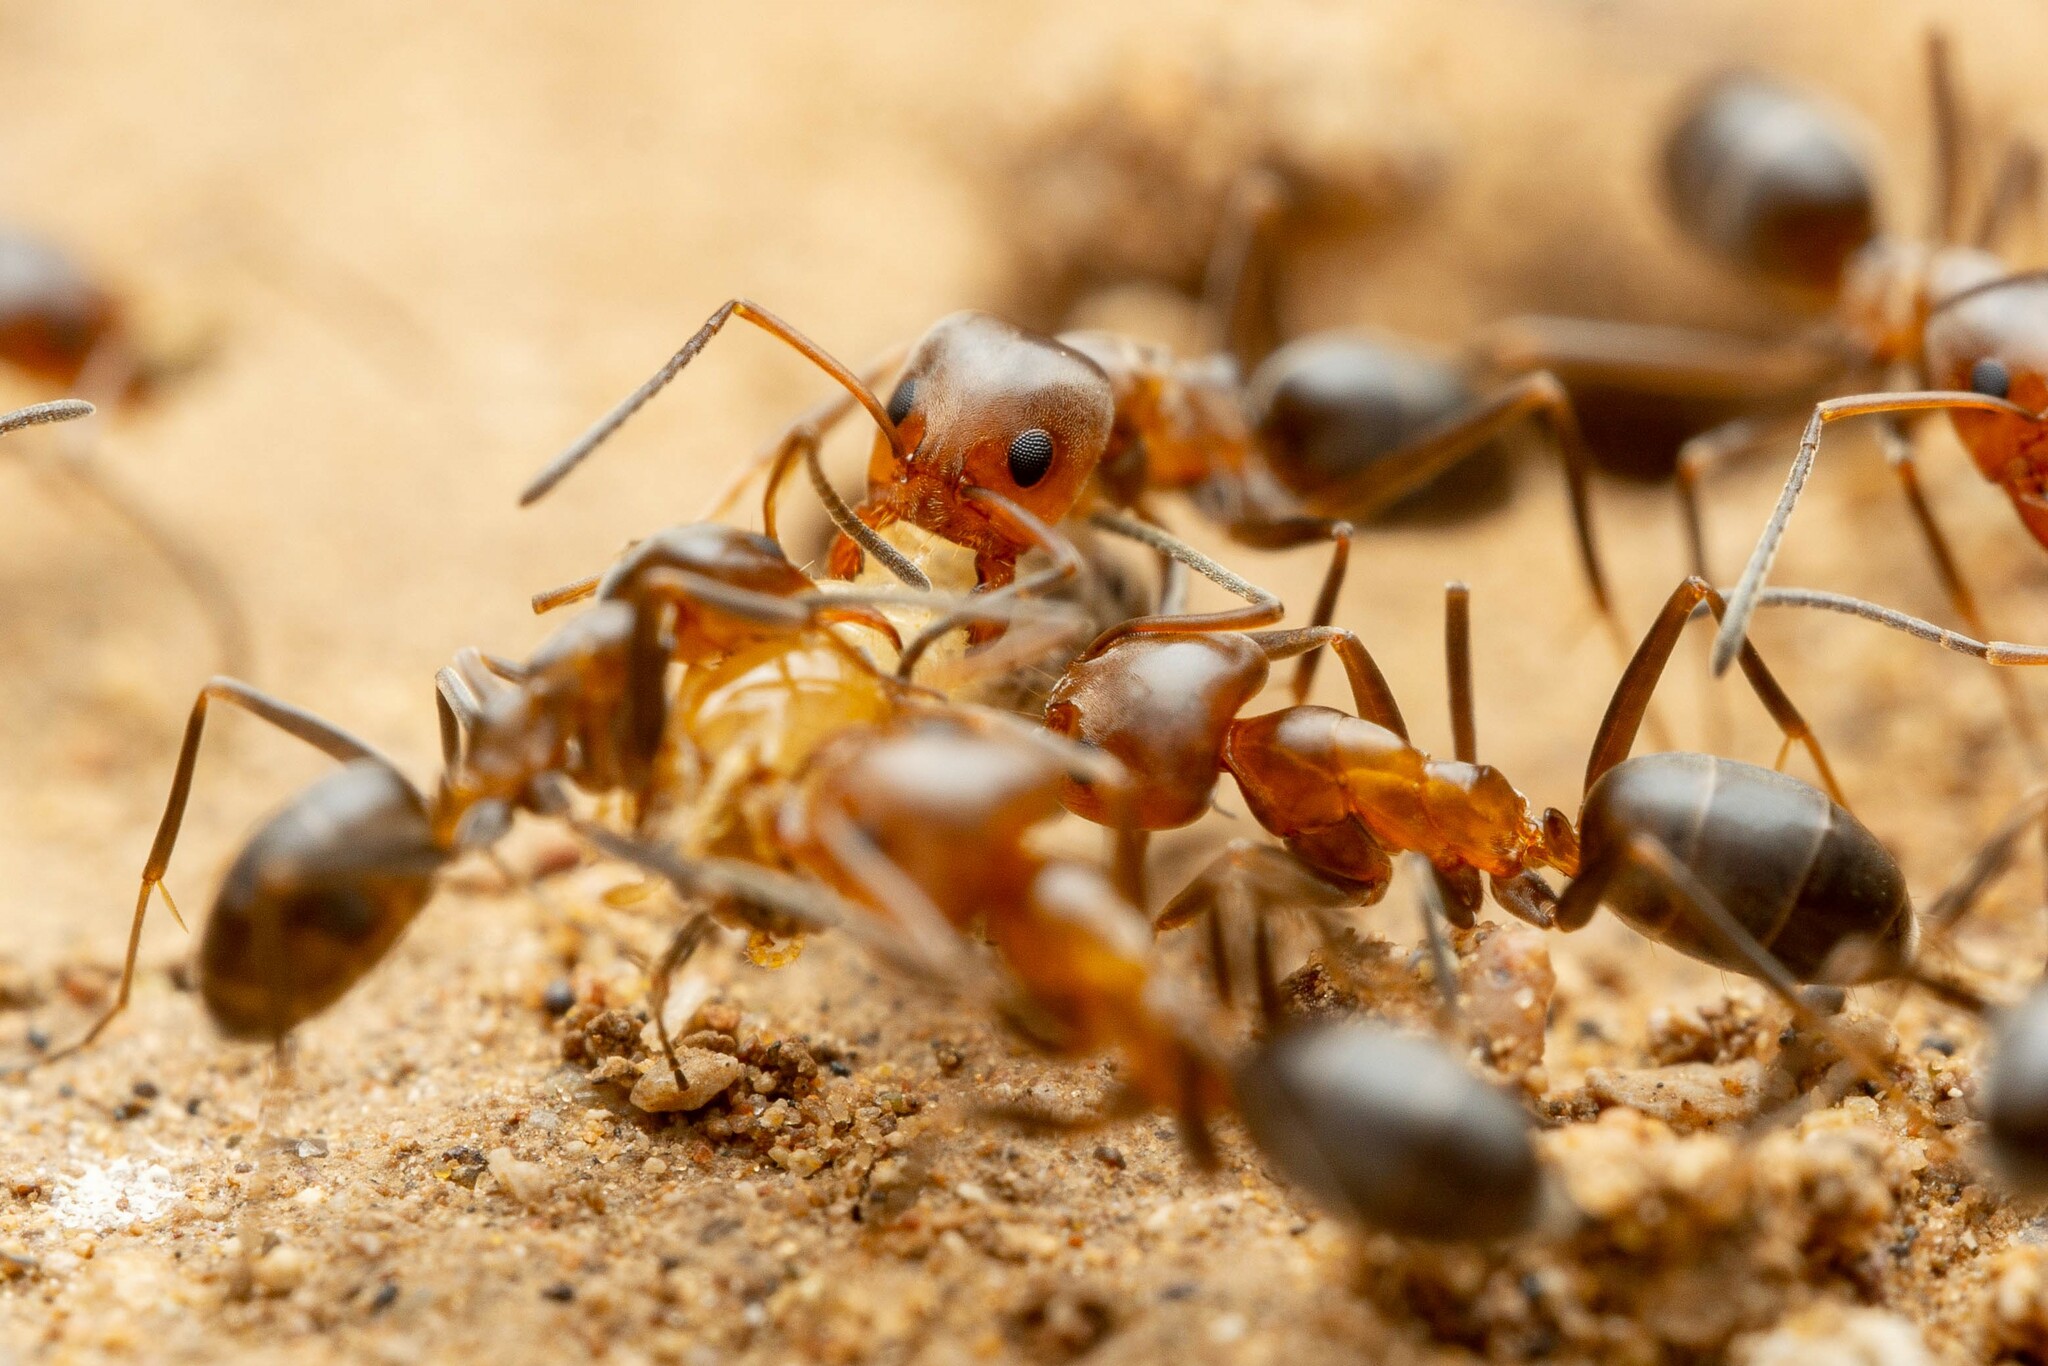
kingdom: Animalia
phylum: Arthropoda
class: Insecta
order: Hymenoptera
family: Formicidae
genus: Dorymyrmex
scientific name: Dorymyrmex
